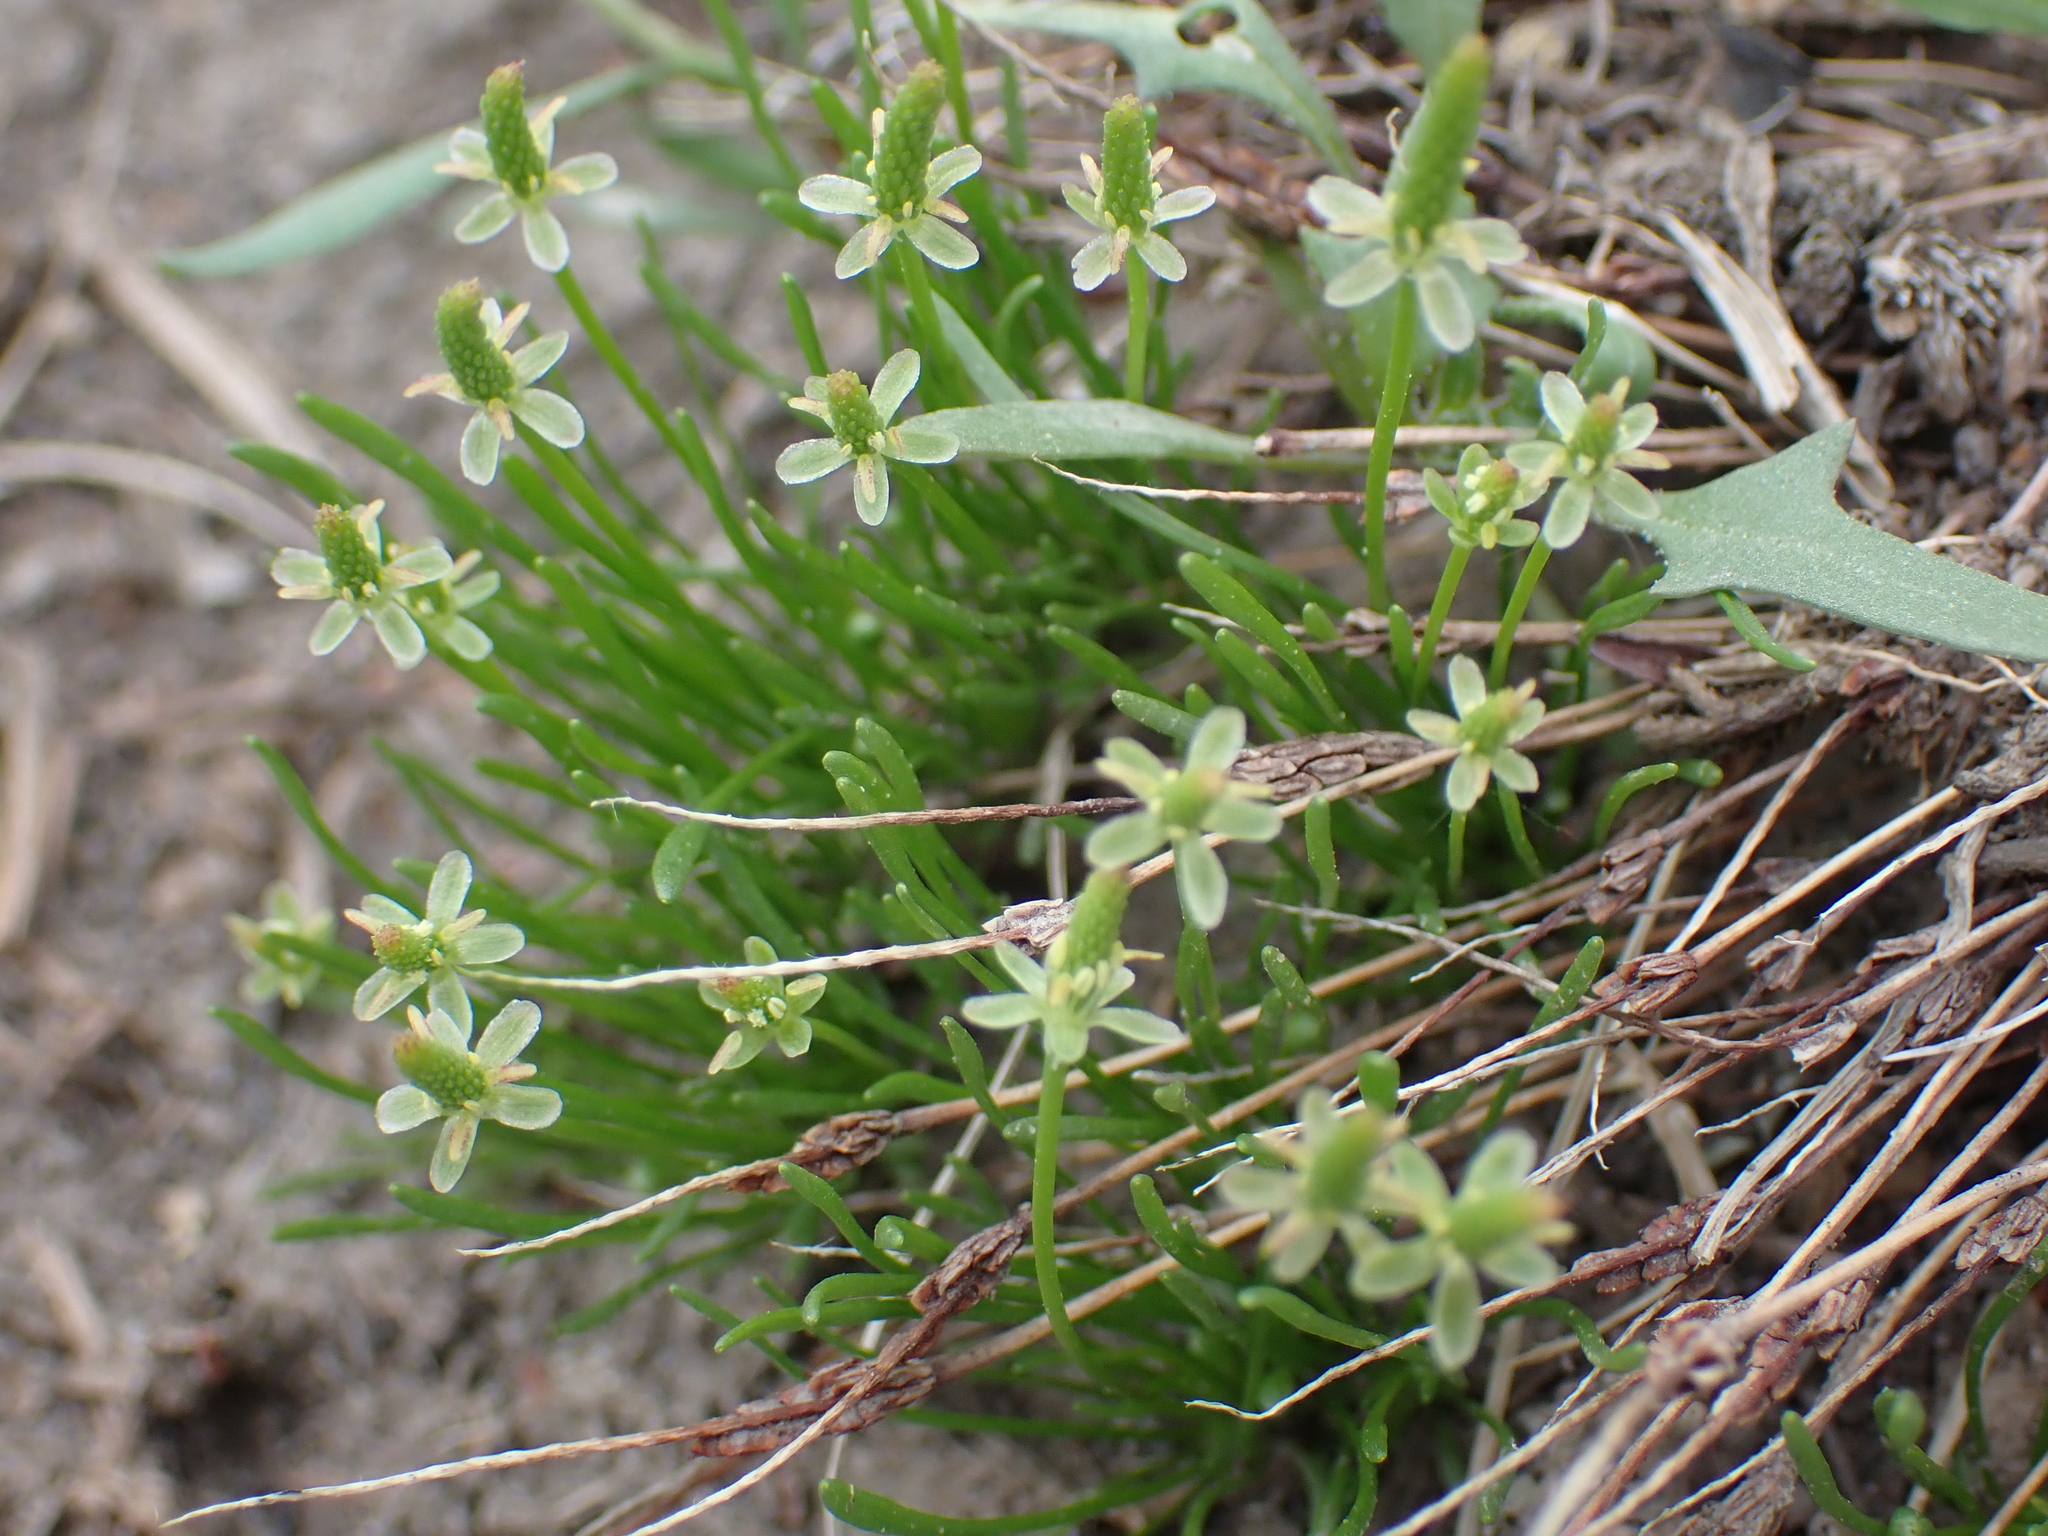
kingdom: Plantae
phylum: Tracheophyta
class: Magnoliopsida
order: Ranunculales
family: Ranunculaceae
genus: Myosurus
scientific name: Myosurus minimus
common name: Mousetail
